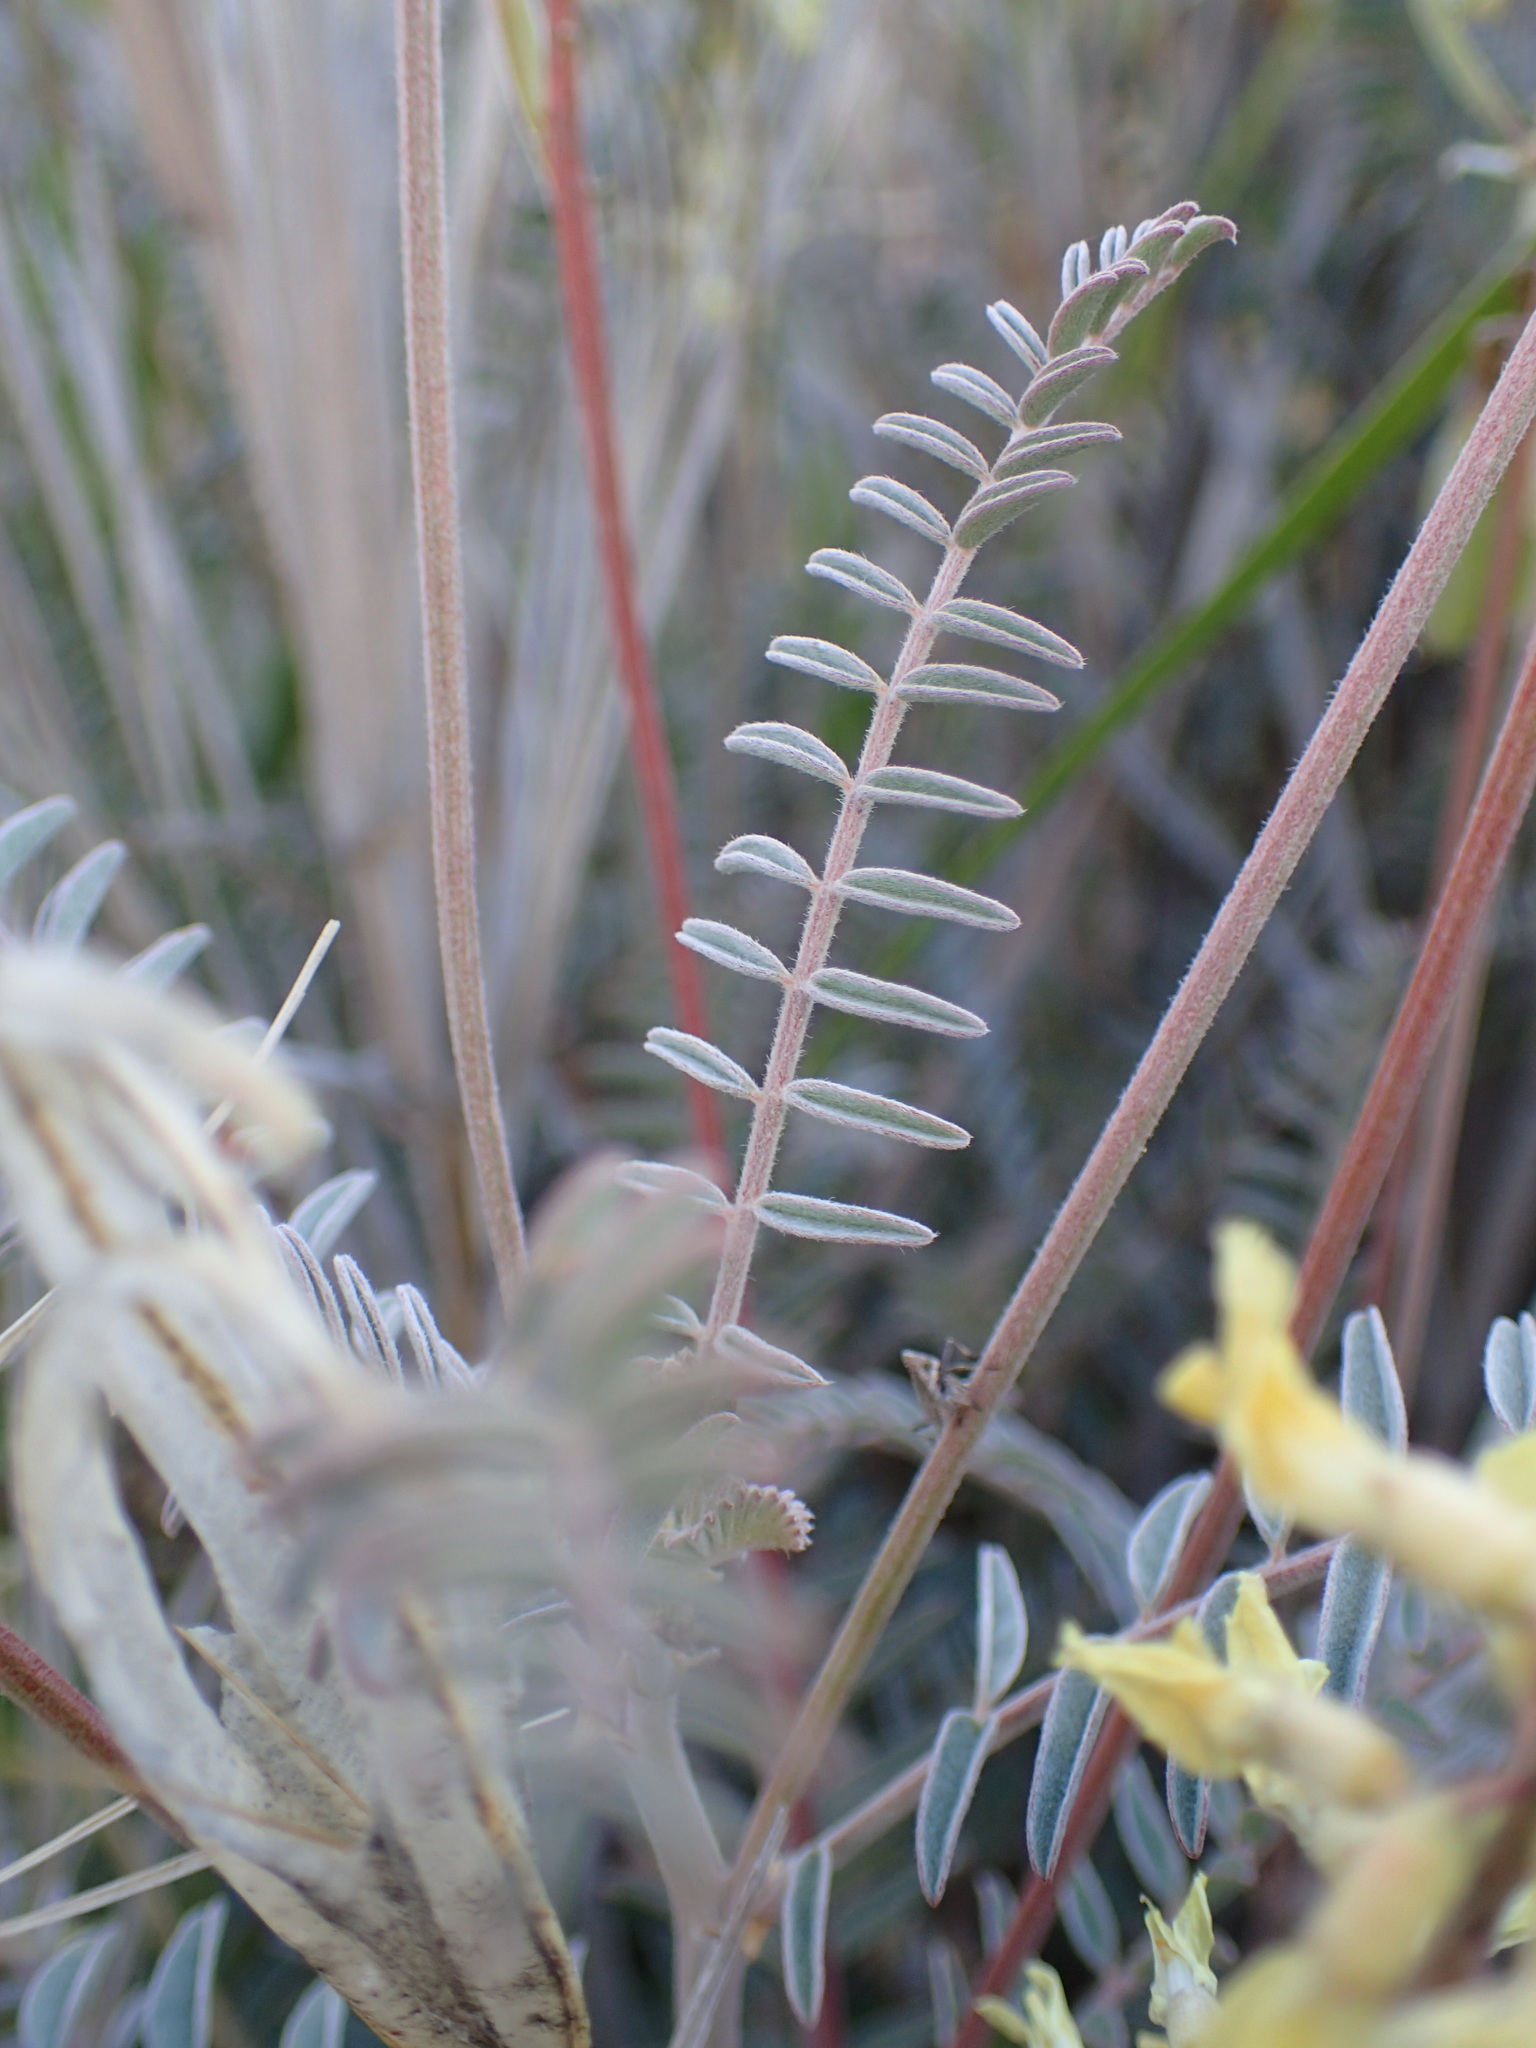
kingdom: Plantae
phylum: Tracheophyta
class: Magnoliopsida
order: Fabales
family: Fabaceae
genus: Astragalus
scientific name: Astragalus trichopodus
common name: Santa barbara milk-vetch
